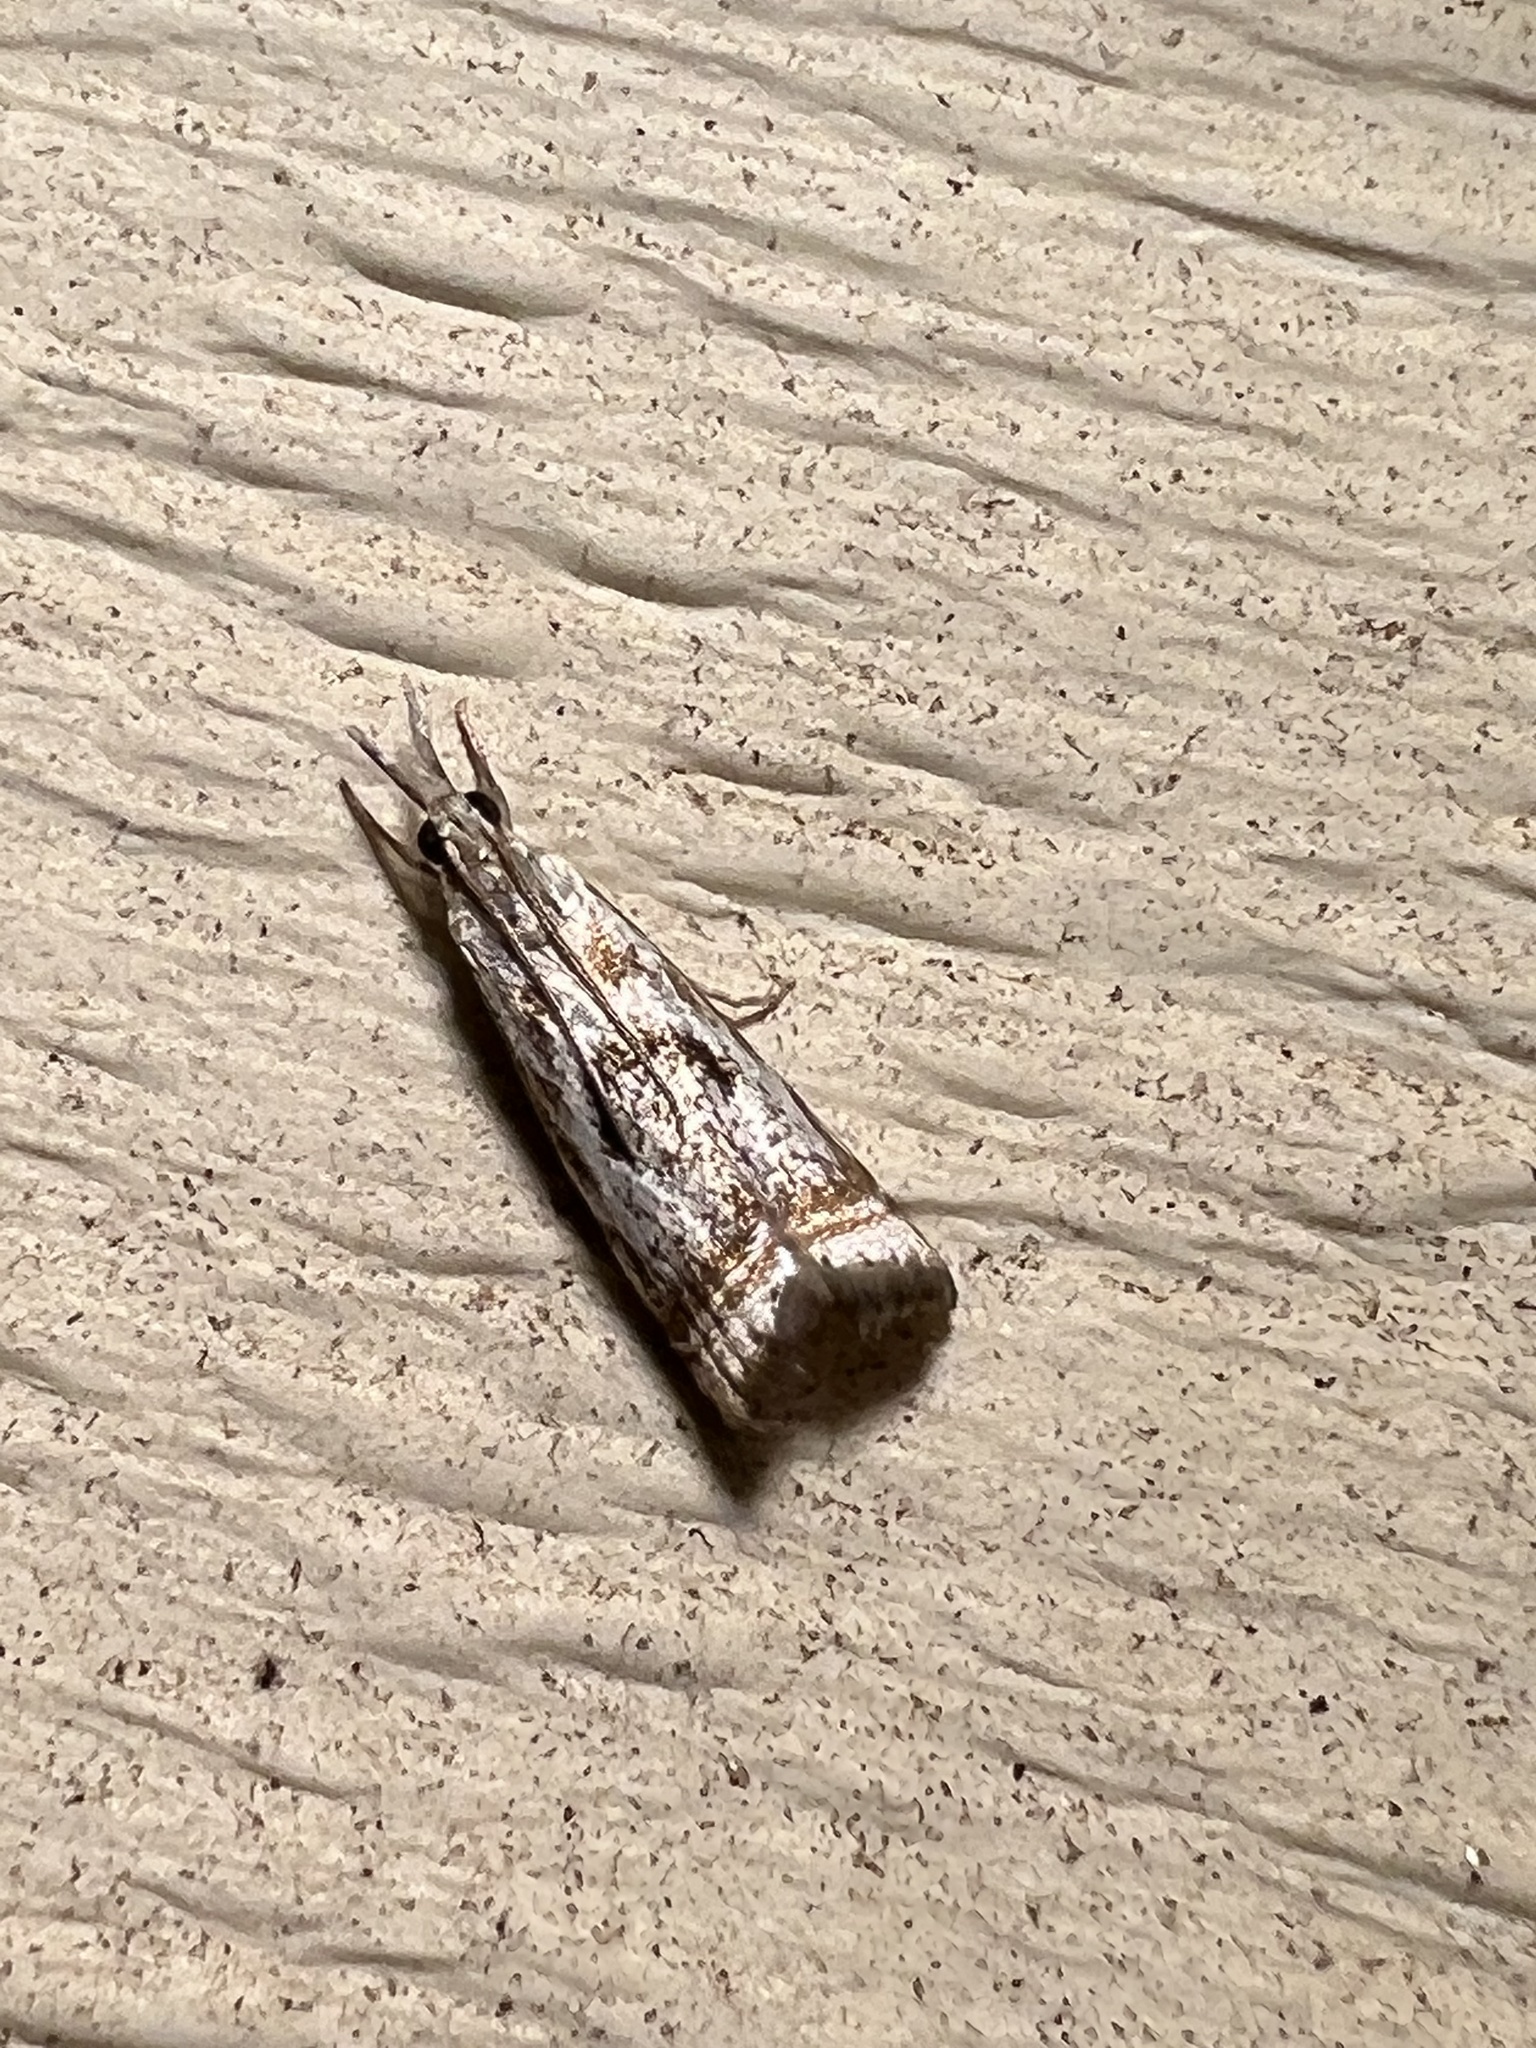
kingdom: Animalia
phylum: Arthropoda
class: Insecta
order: Lepidoptera
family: Crambidae
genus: Microcrambus
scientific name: Microcrambus elegans
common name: Elegant grass-veneer
